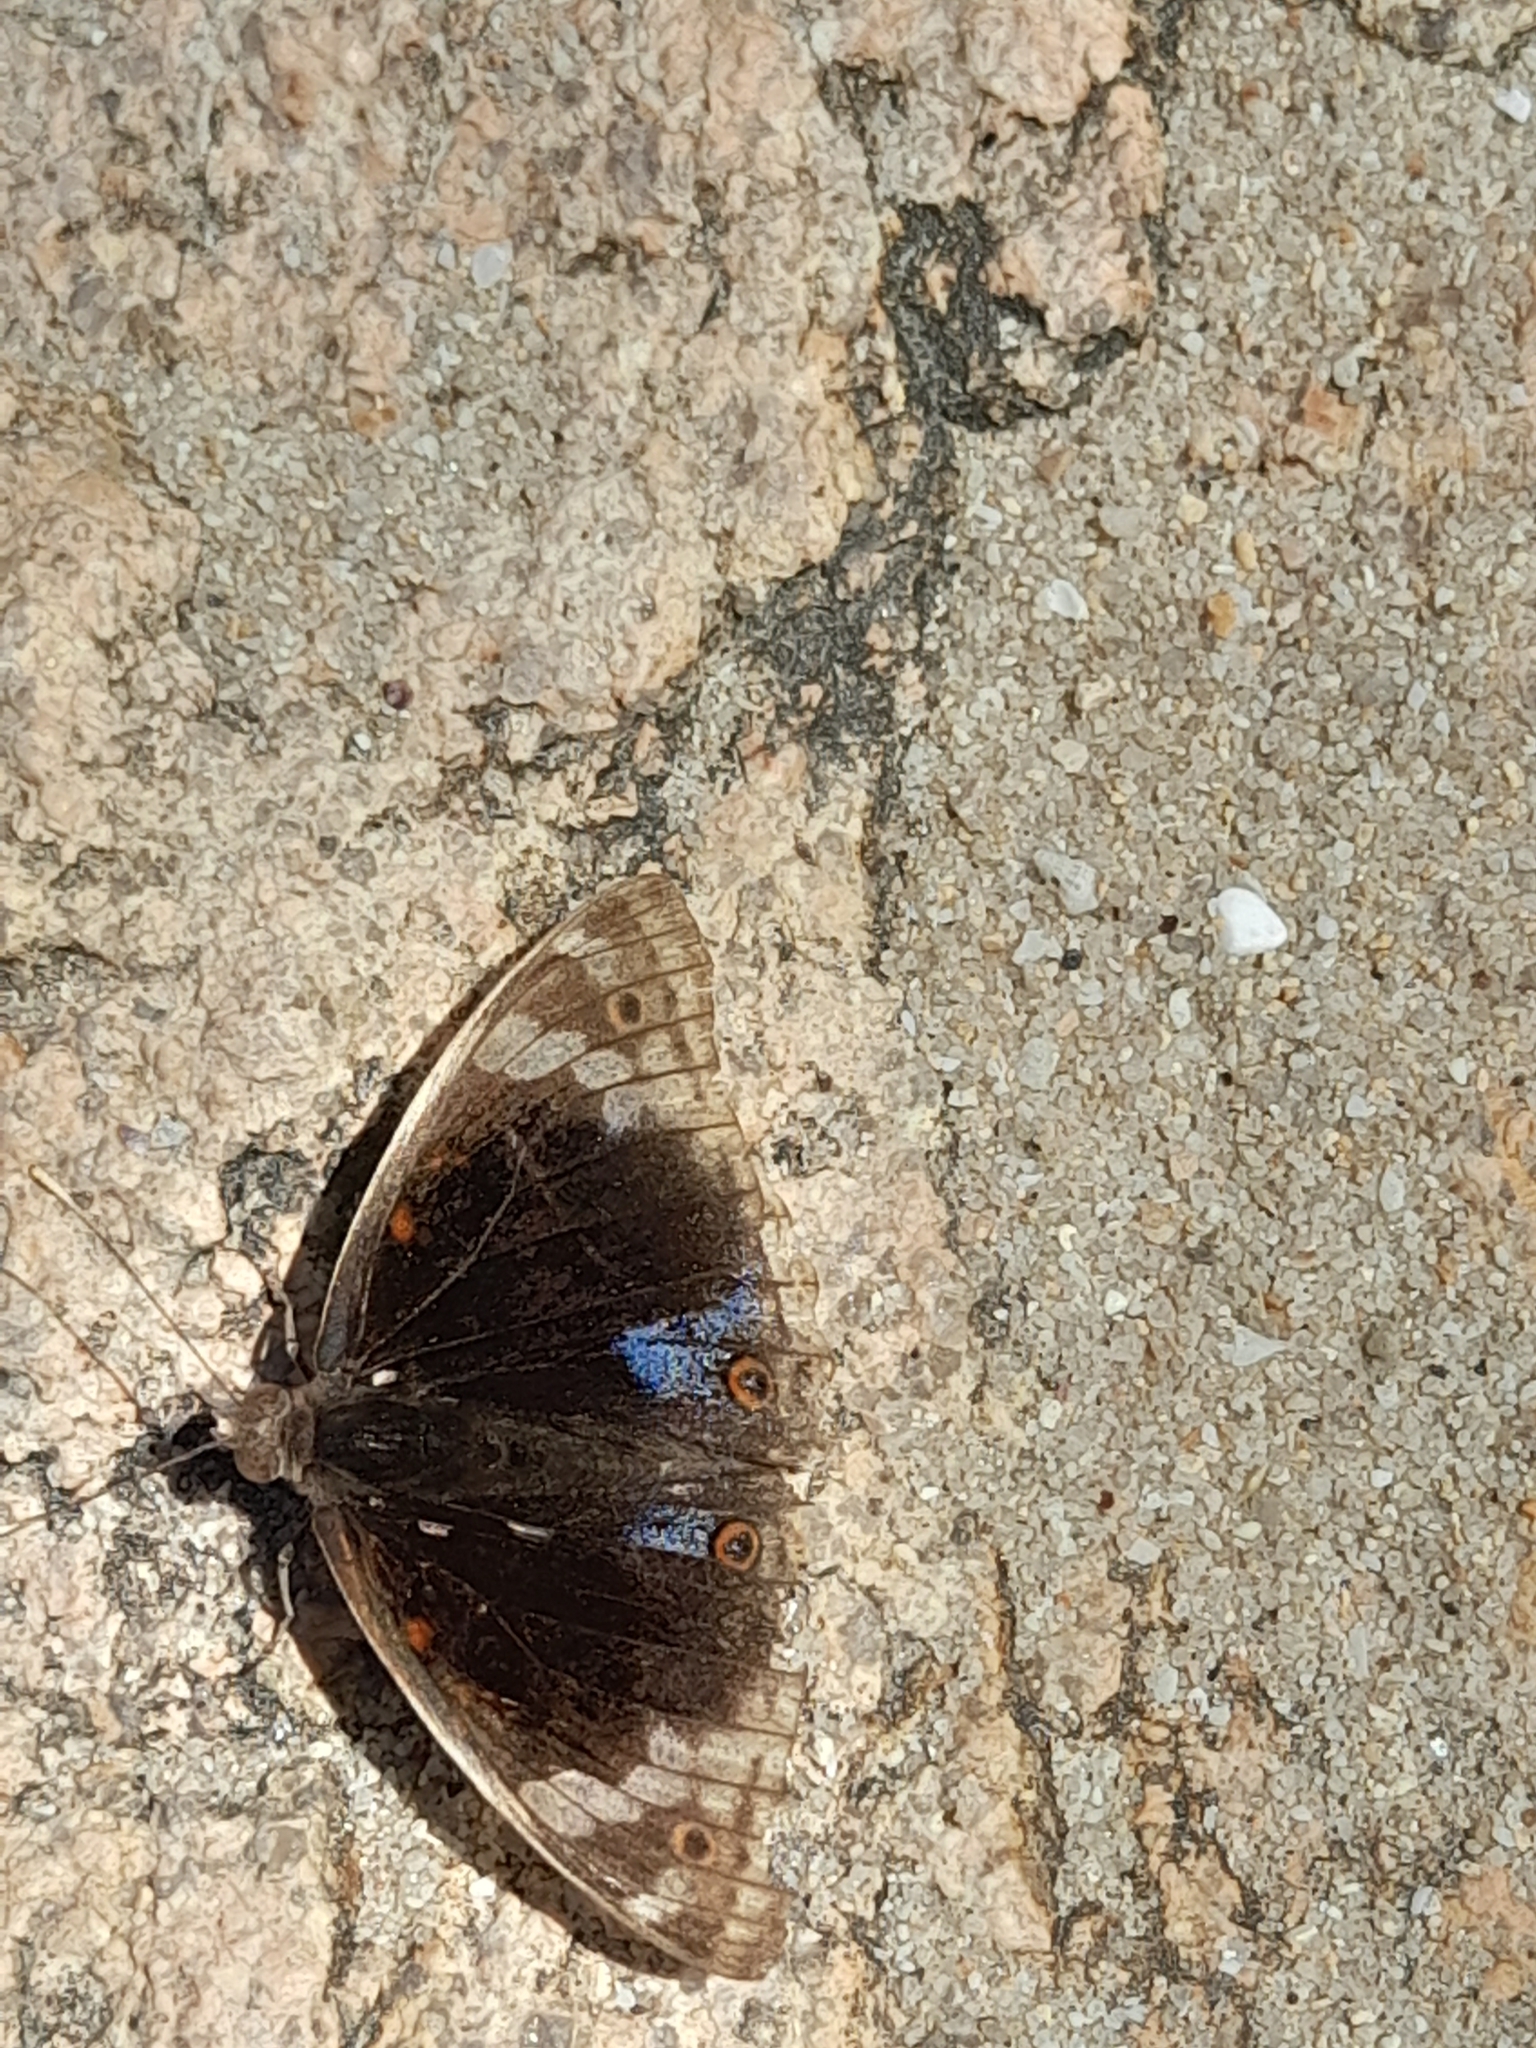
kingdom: Animalia
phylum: Arthropoda
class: Insecta
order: Lepidoptera
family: Nymphalidae
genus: Junonia
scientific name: Junonia orithya
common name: Blue pansy
